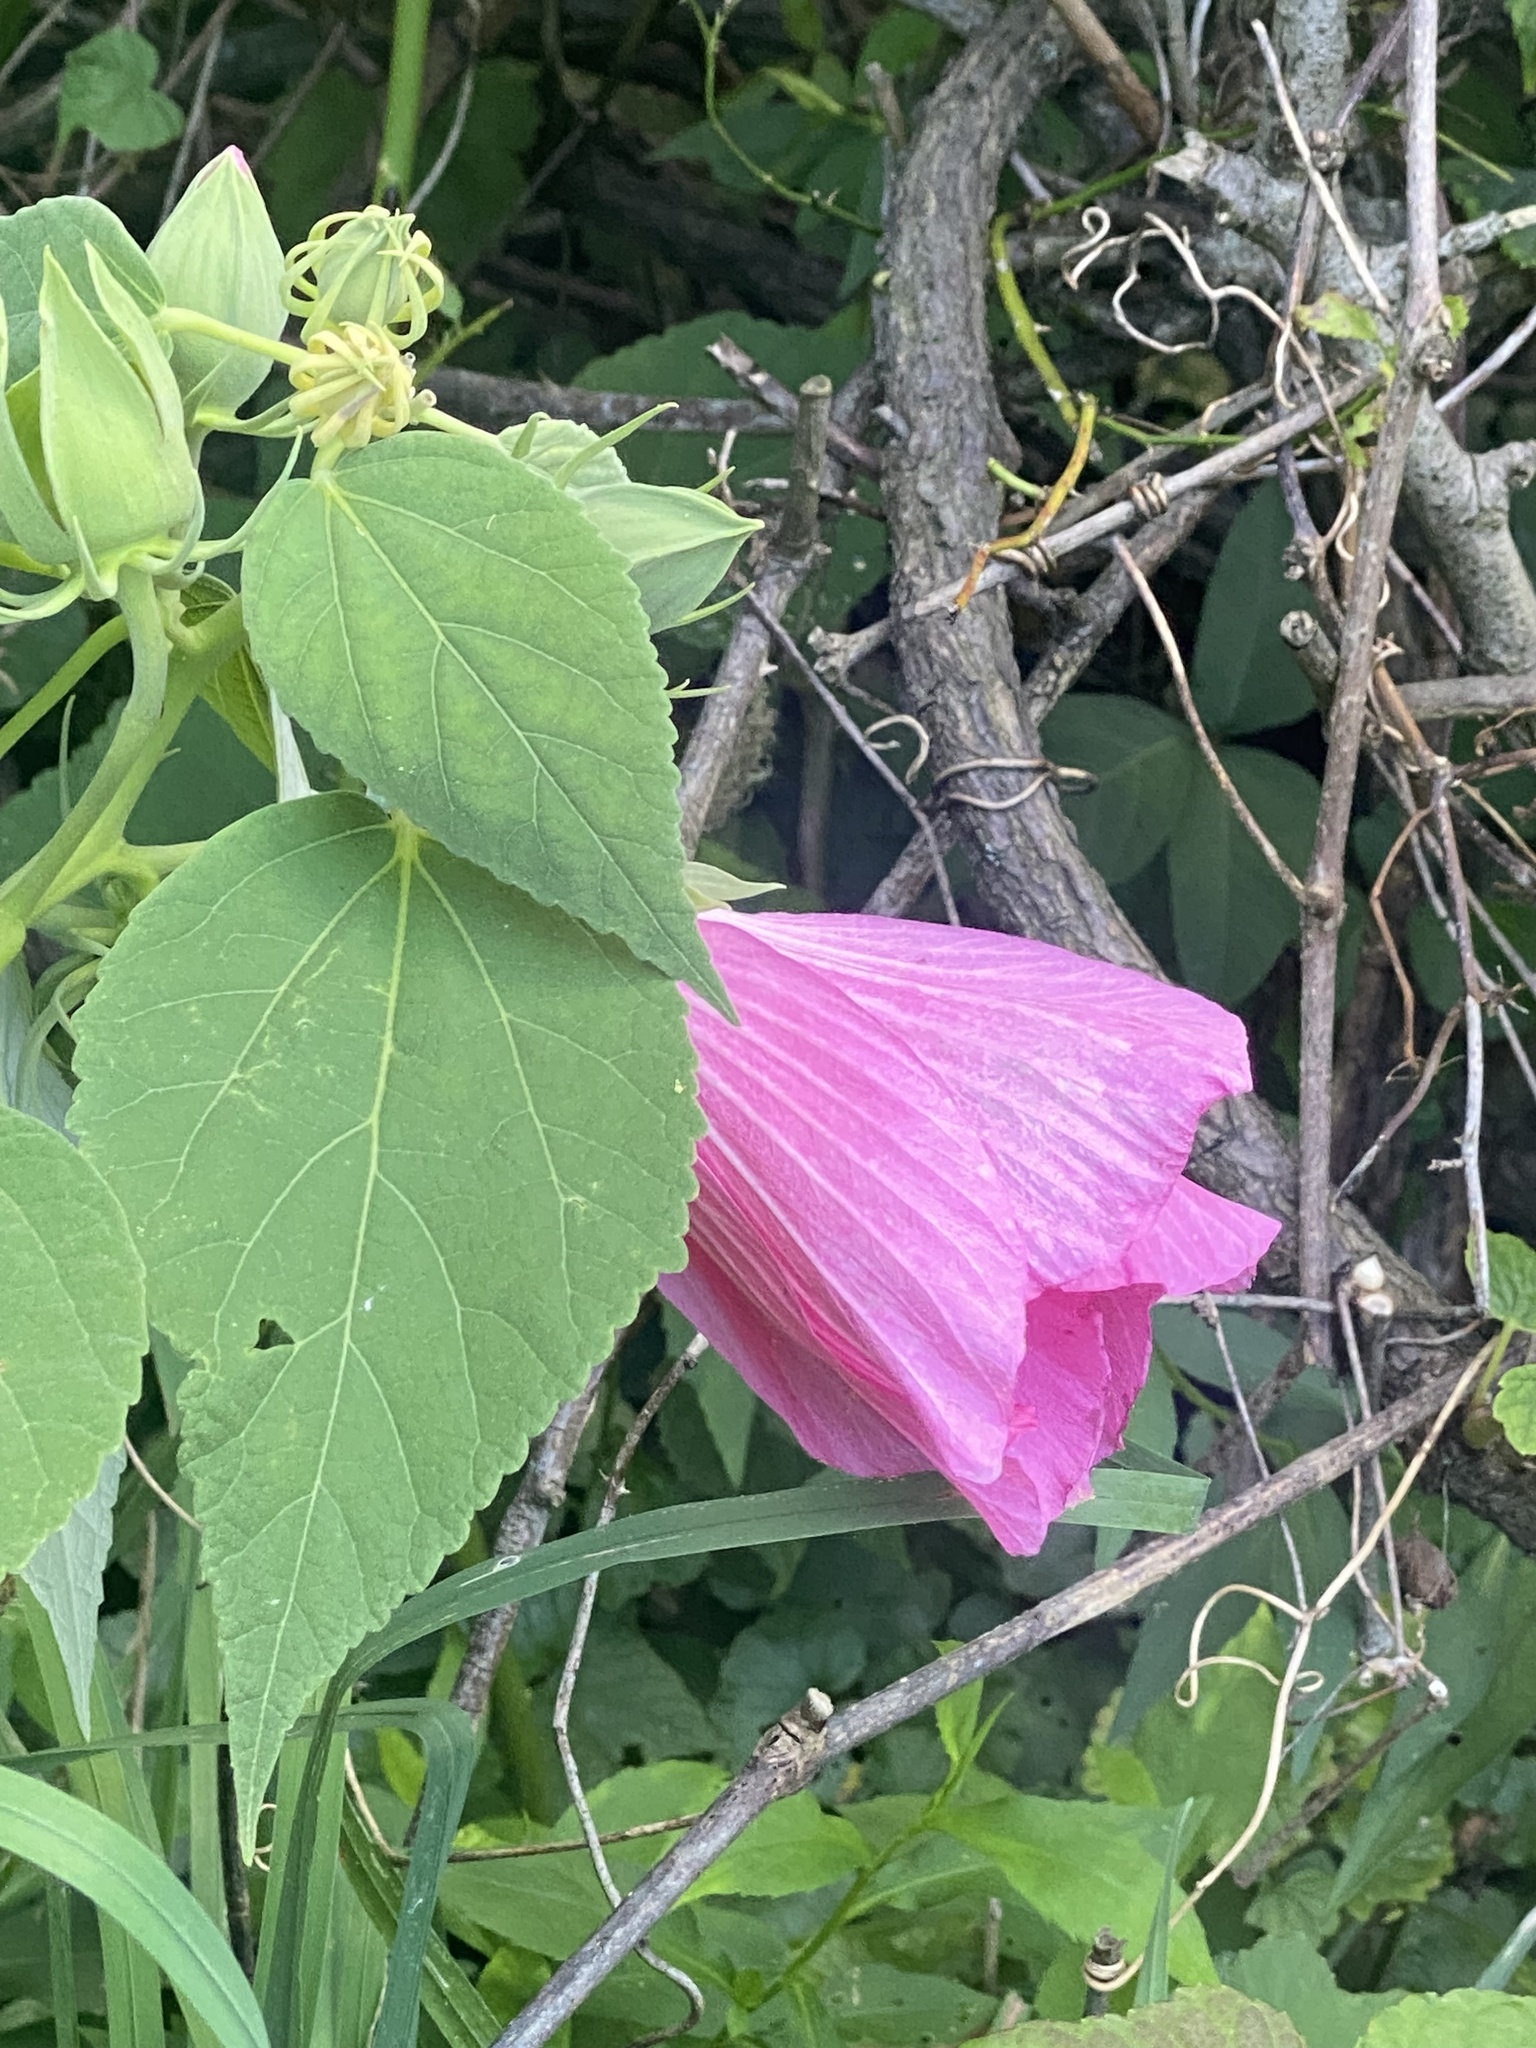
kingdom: Plantae
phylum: Tracheophyta
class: Magnoliopsida
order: Malvales
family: Malvaceae
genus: Hibiscus
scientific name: Hibiscus moscheutos
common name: Common rose-mallow
